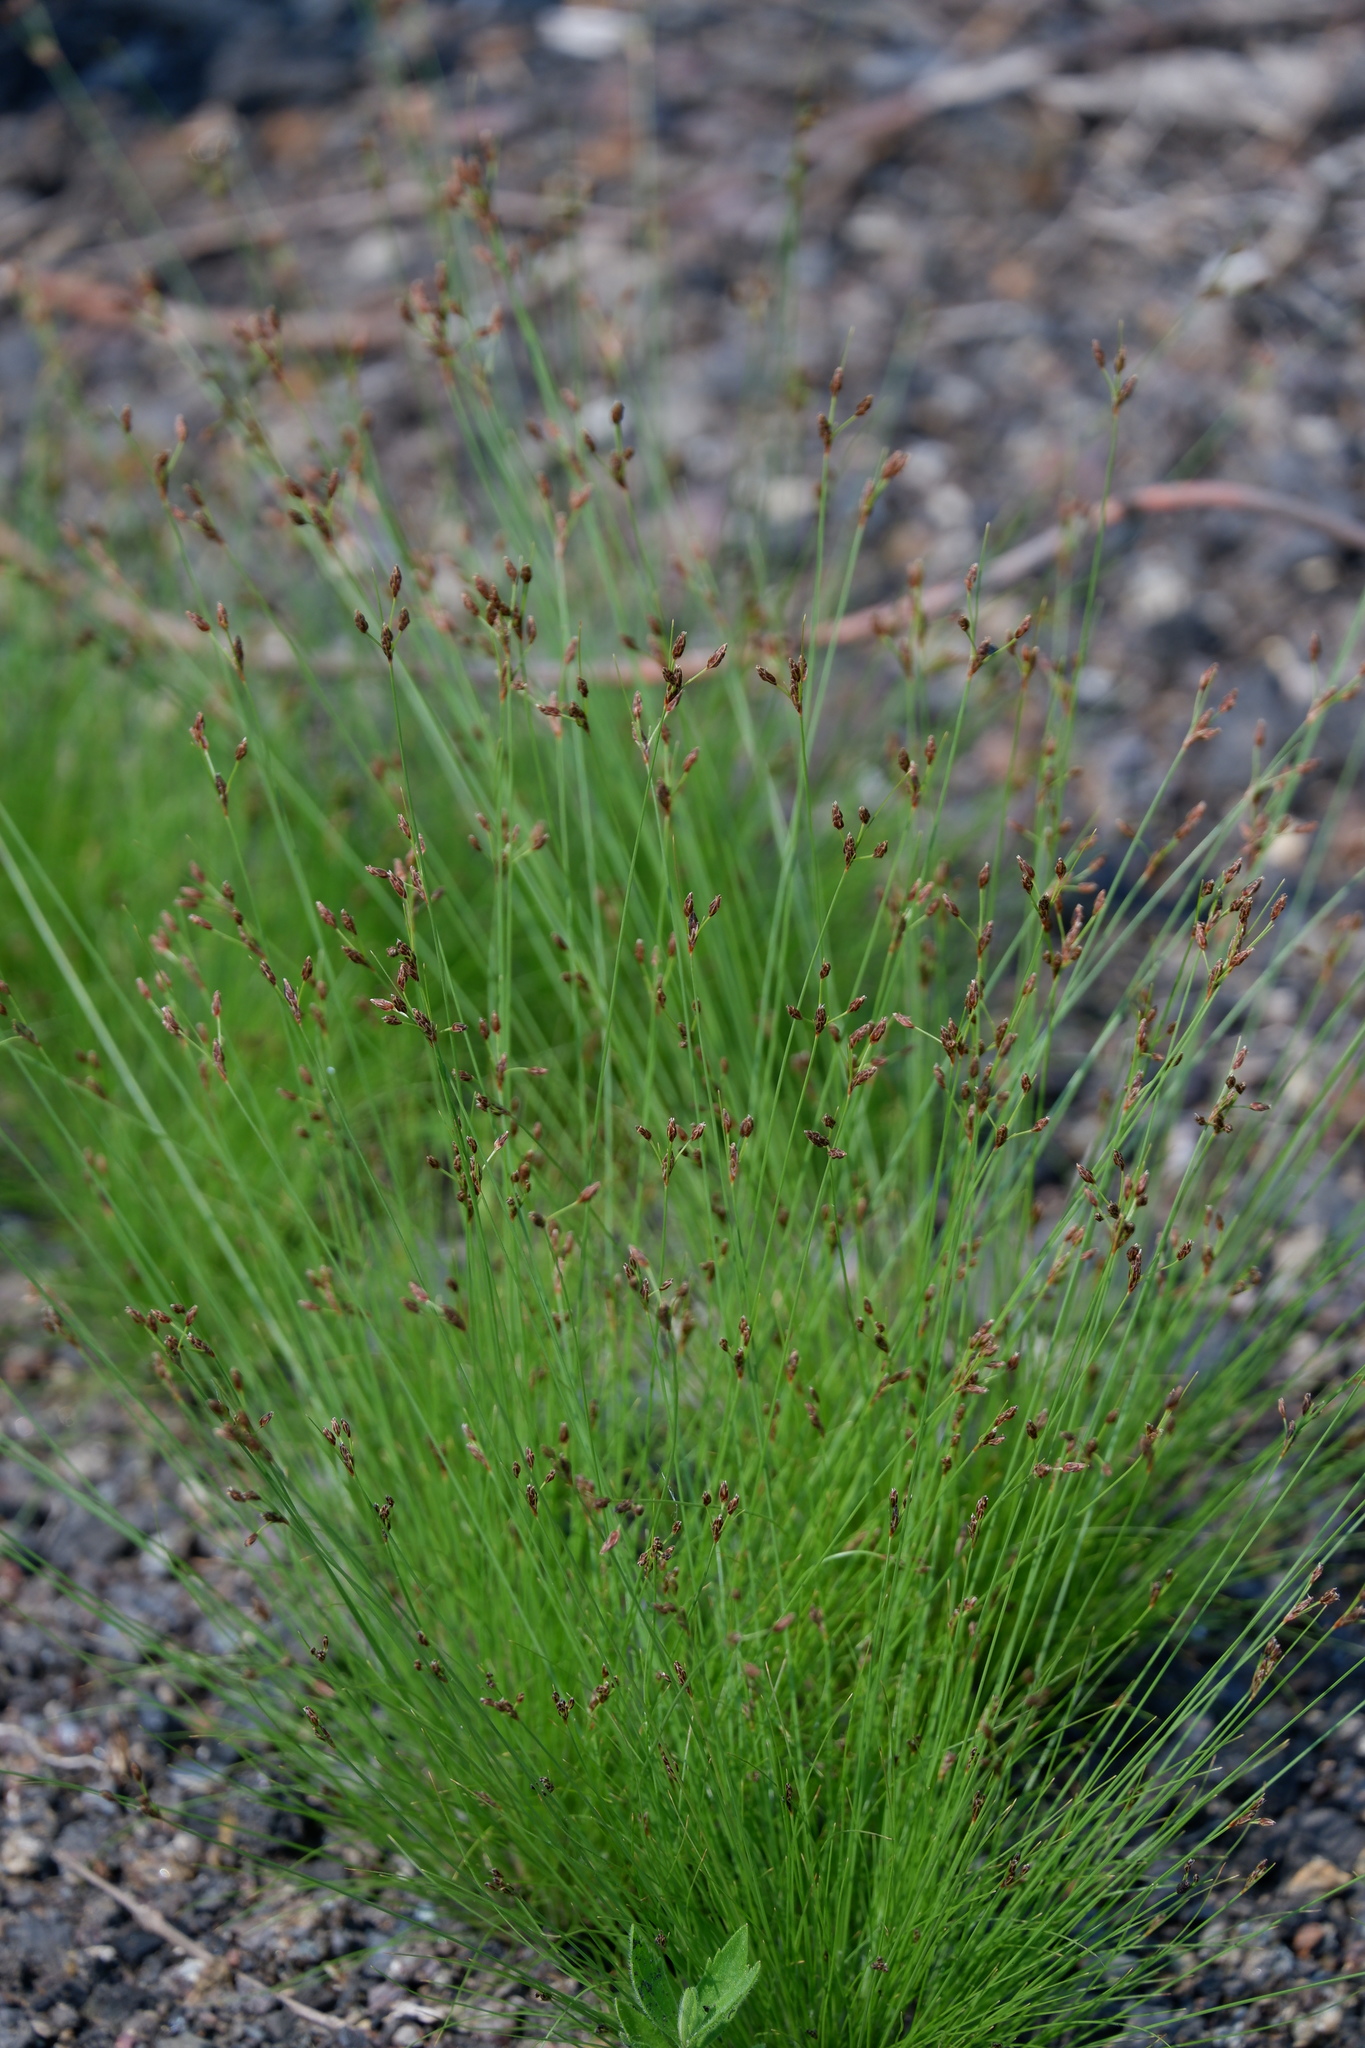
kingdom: Plantae
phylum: Tracheophyta
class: Liliopsida
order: Poales
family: Cyperaceae
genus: Bulbostylis
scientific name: Bulbostylis capillaris
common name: Densetuft hairsedge
